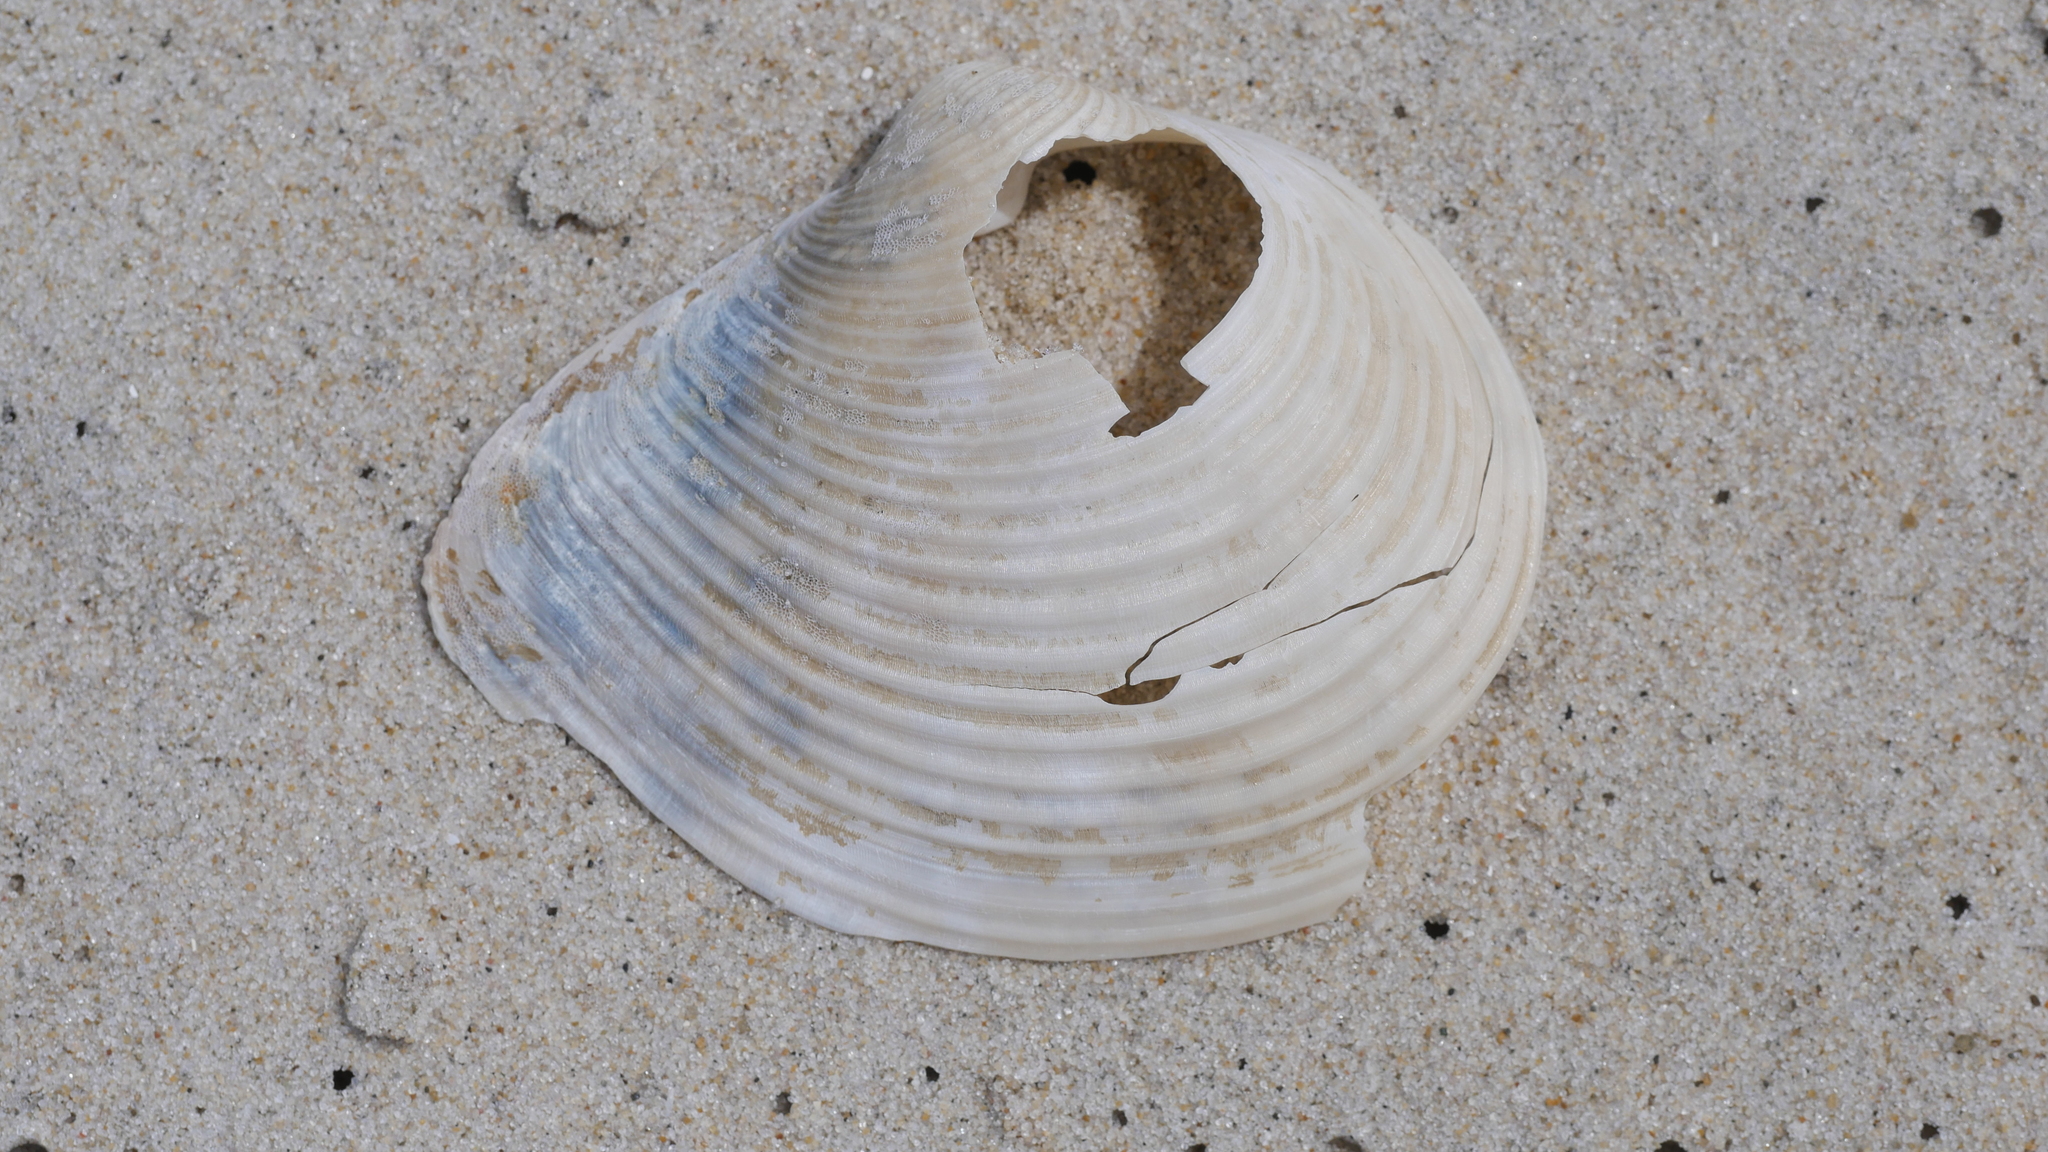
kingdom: Animalia
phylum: Mollusca
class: Bivalvia
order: Venerida
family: Anatinellidae
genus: Raeta
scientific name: Raeta plicatella
